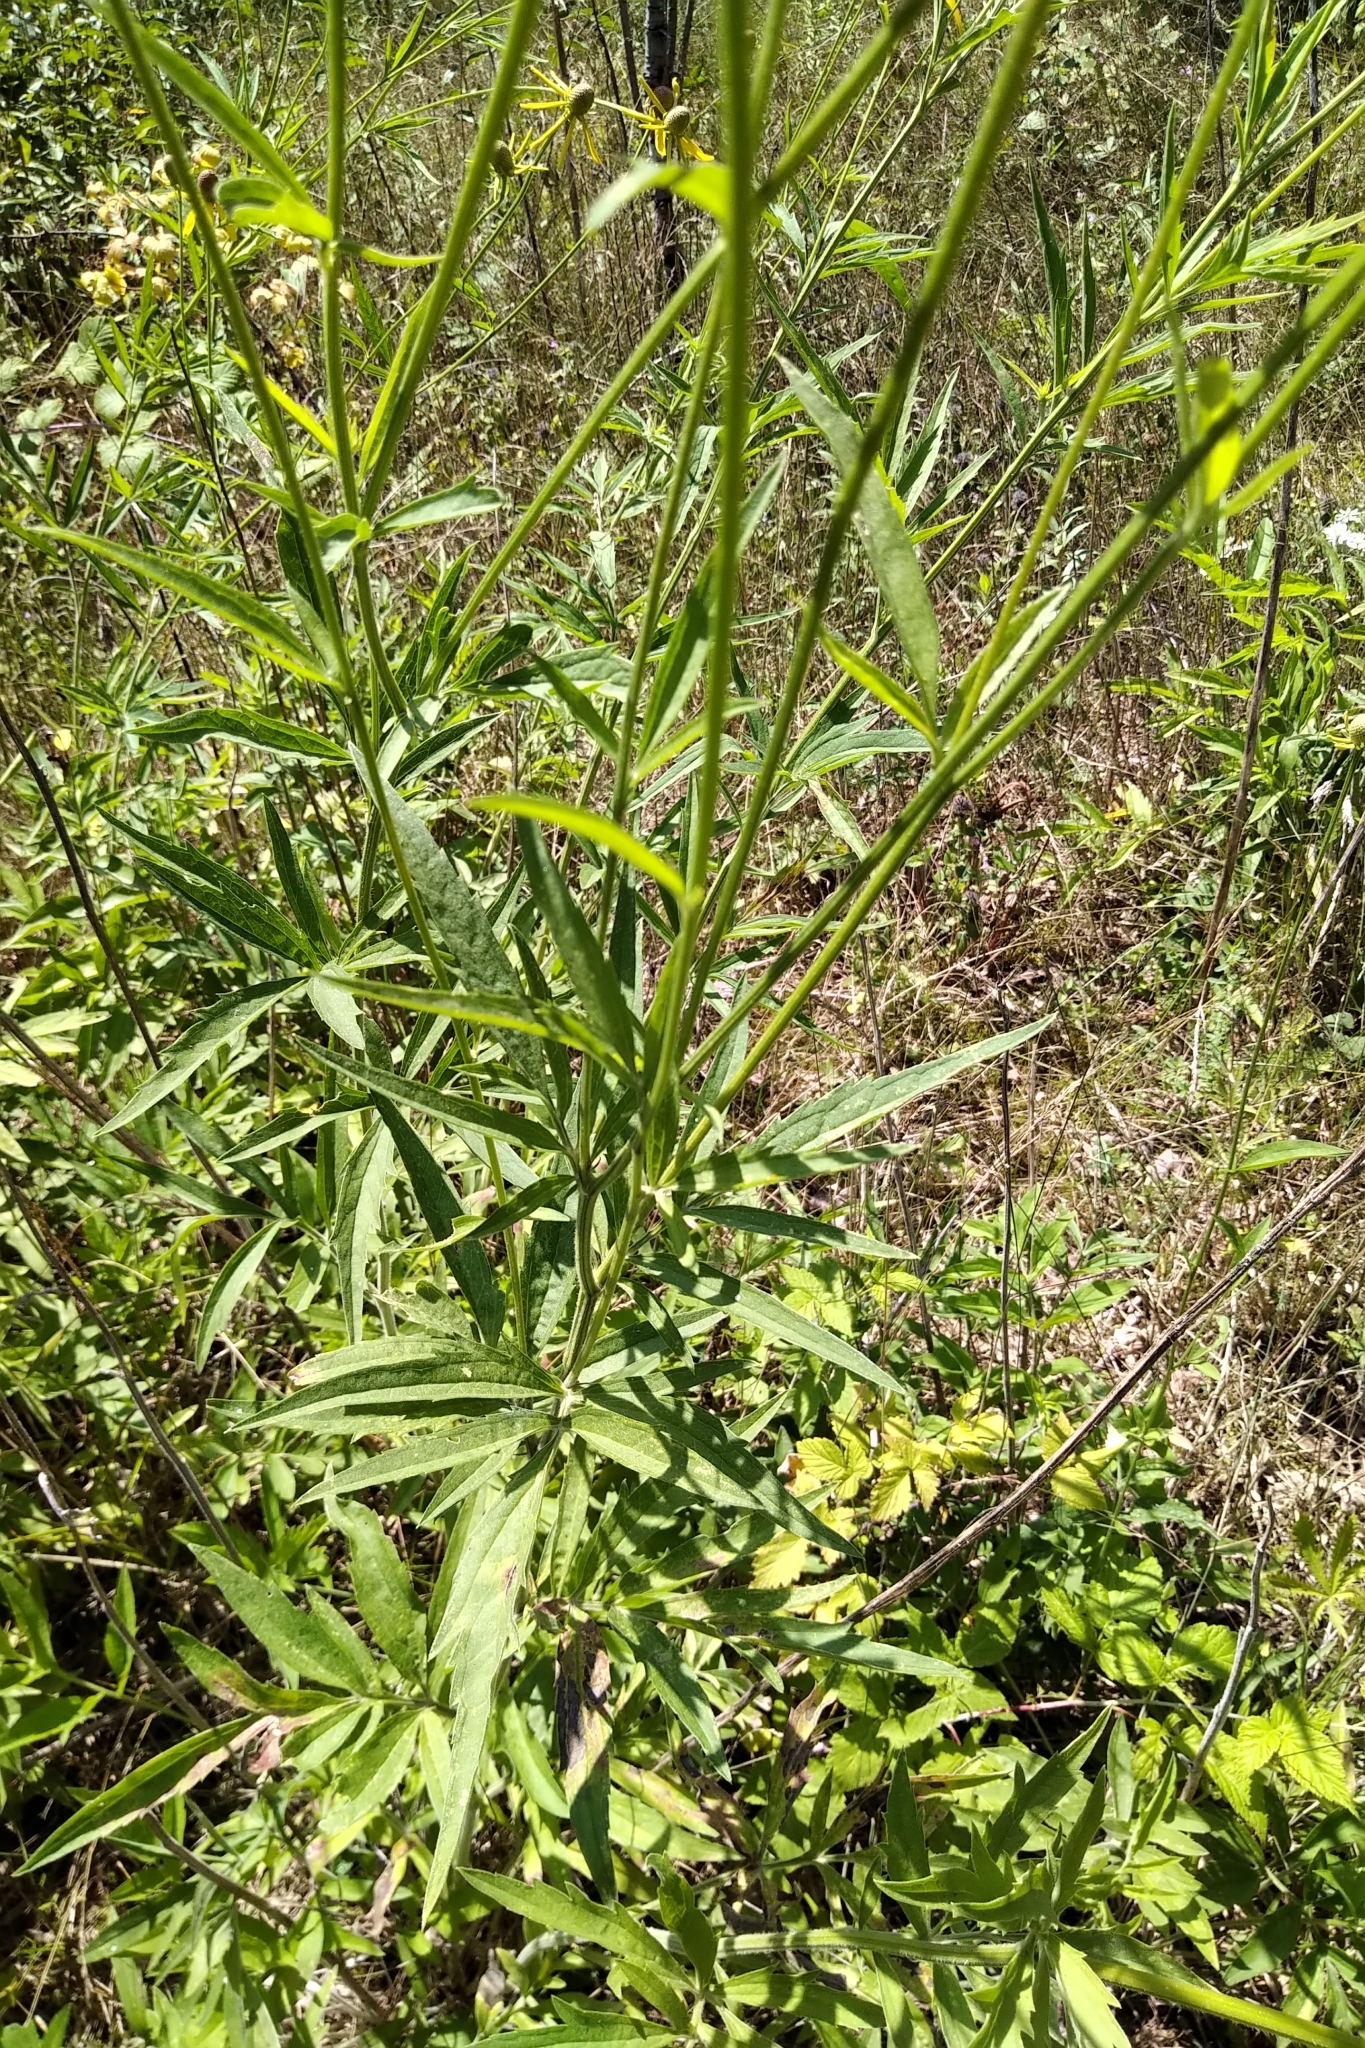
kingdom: Plantae
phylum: Tracheophyta
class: Magnoliopsida
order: Asterales
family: Asteraceae
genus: Ratibida
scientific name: Ratibida pinnata
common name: Drooping prairie-coneflower
